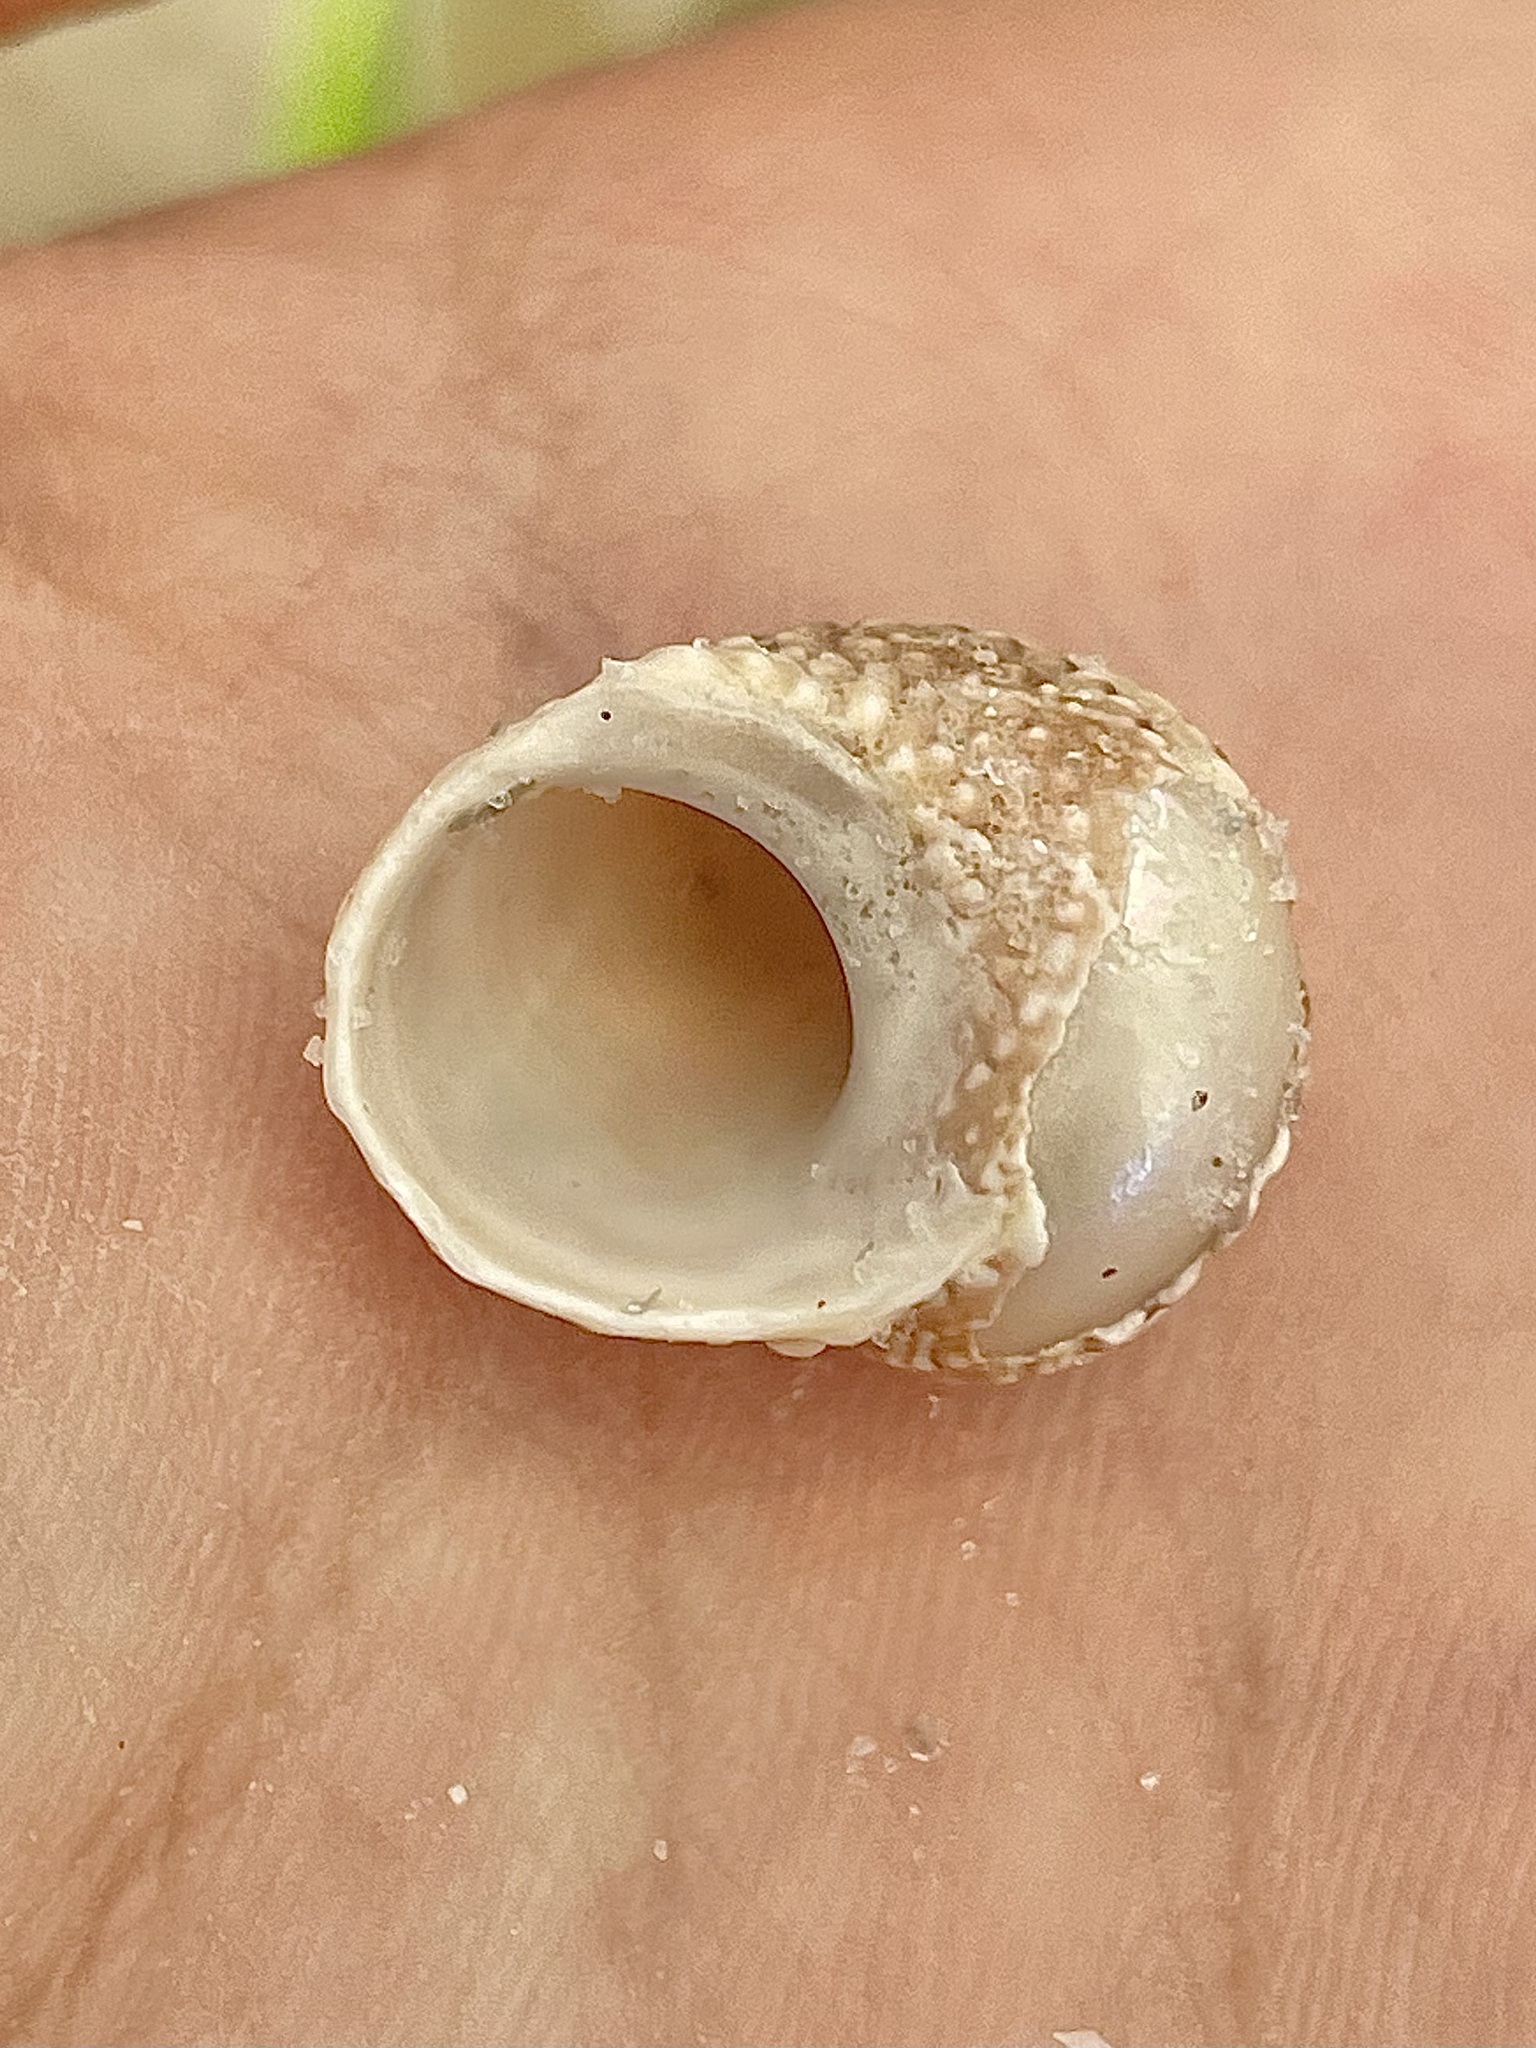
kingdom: Animalia
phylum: Mollusca
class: Gastropoda
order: Trochida
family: Turbinidae
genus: Turbo
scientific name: Turbo castanea
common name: Chestnut turban
